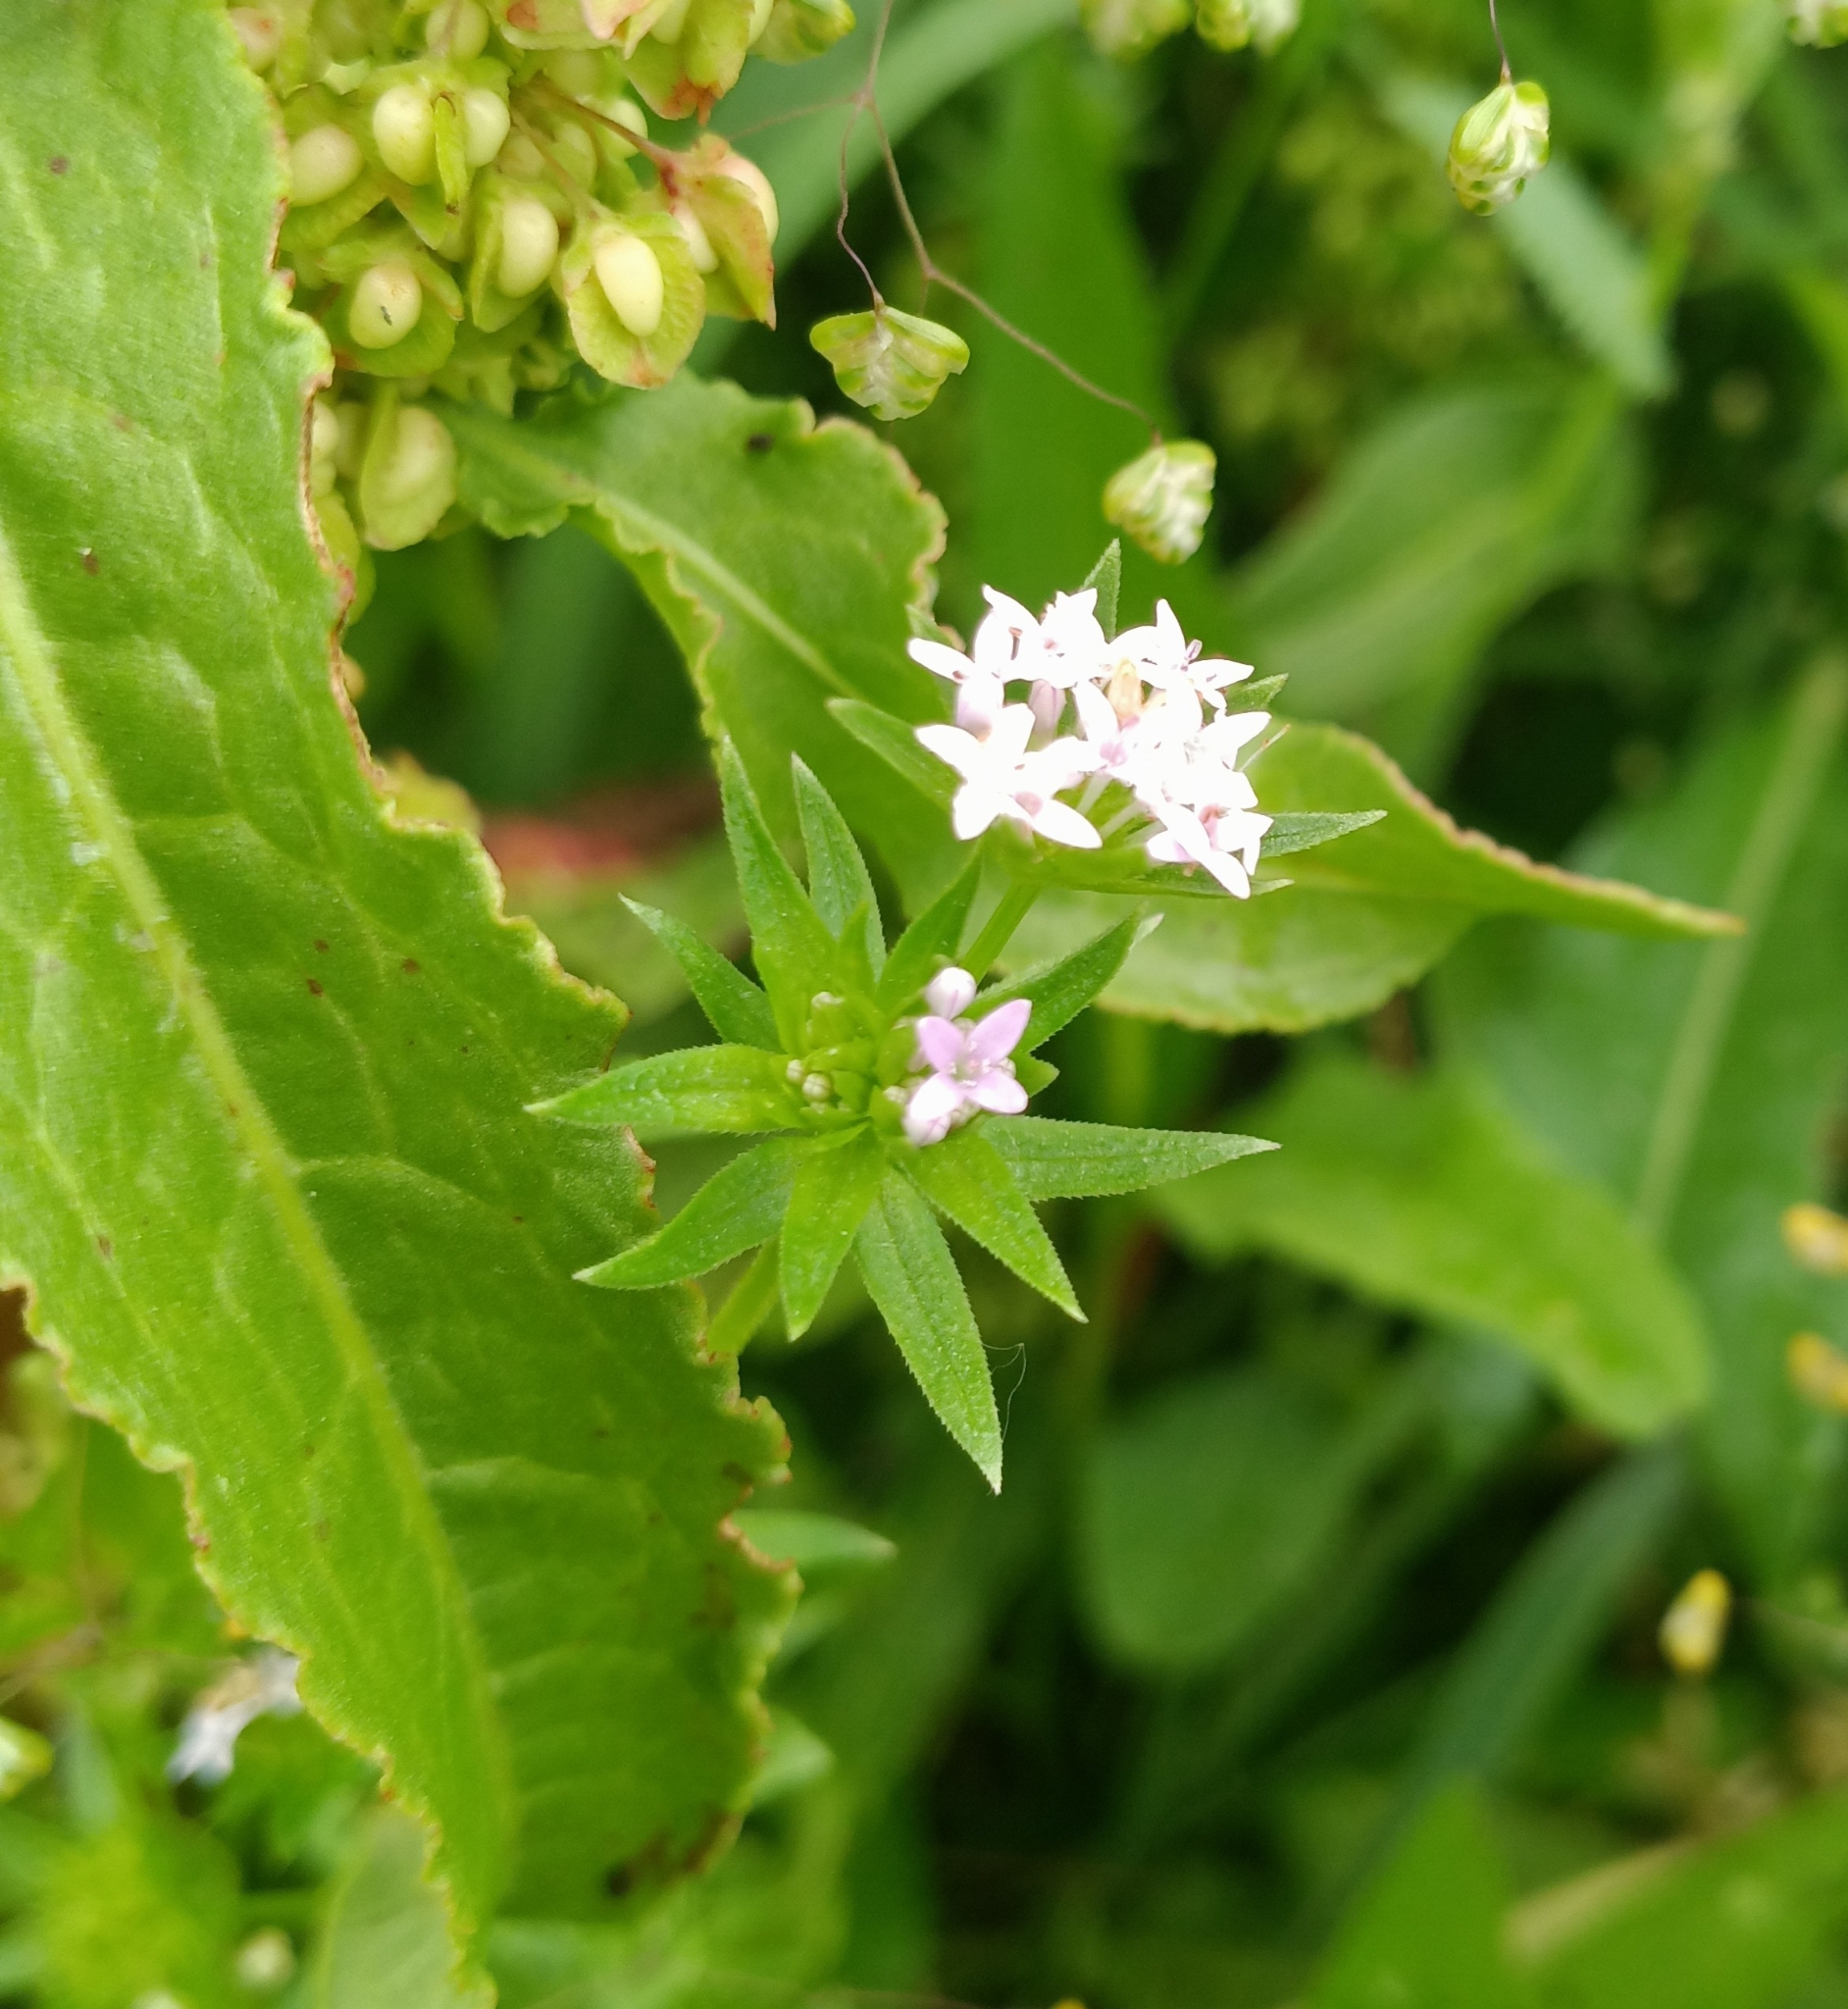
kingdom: Plantae
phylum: Tracheophyta
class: Magnoliopsida
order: Gentianales
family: Rubiaceae
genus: Sherardia
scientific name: Sherardia arvensis
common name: Field madder
